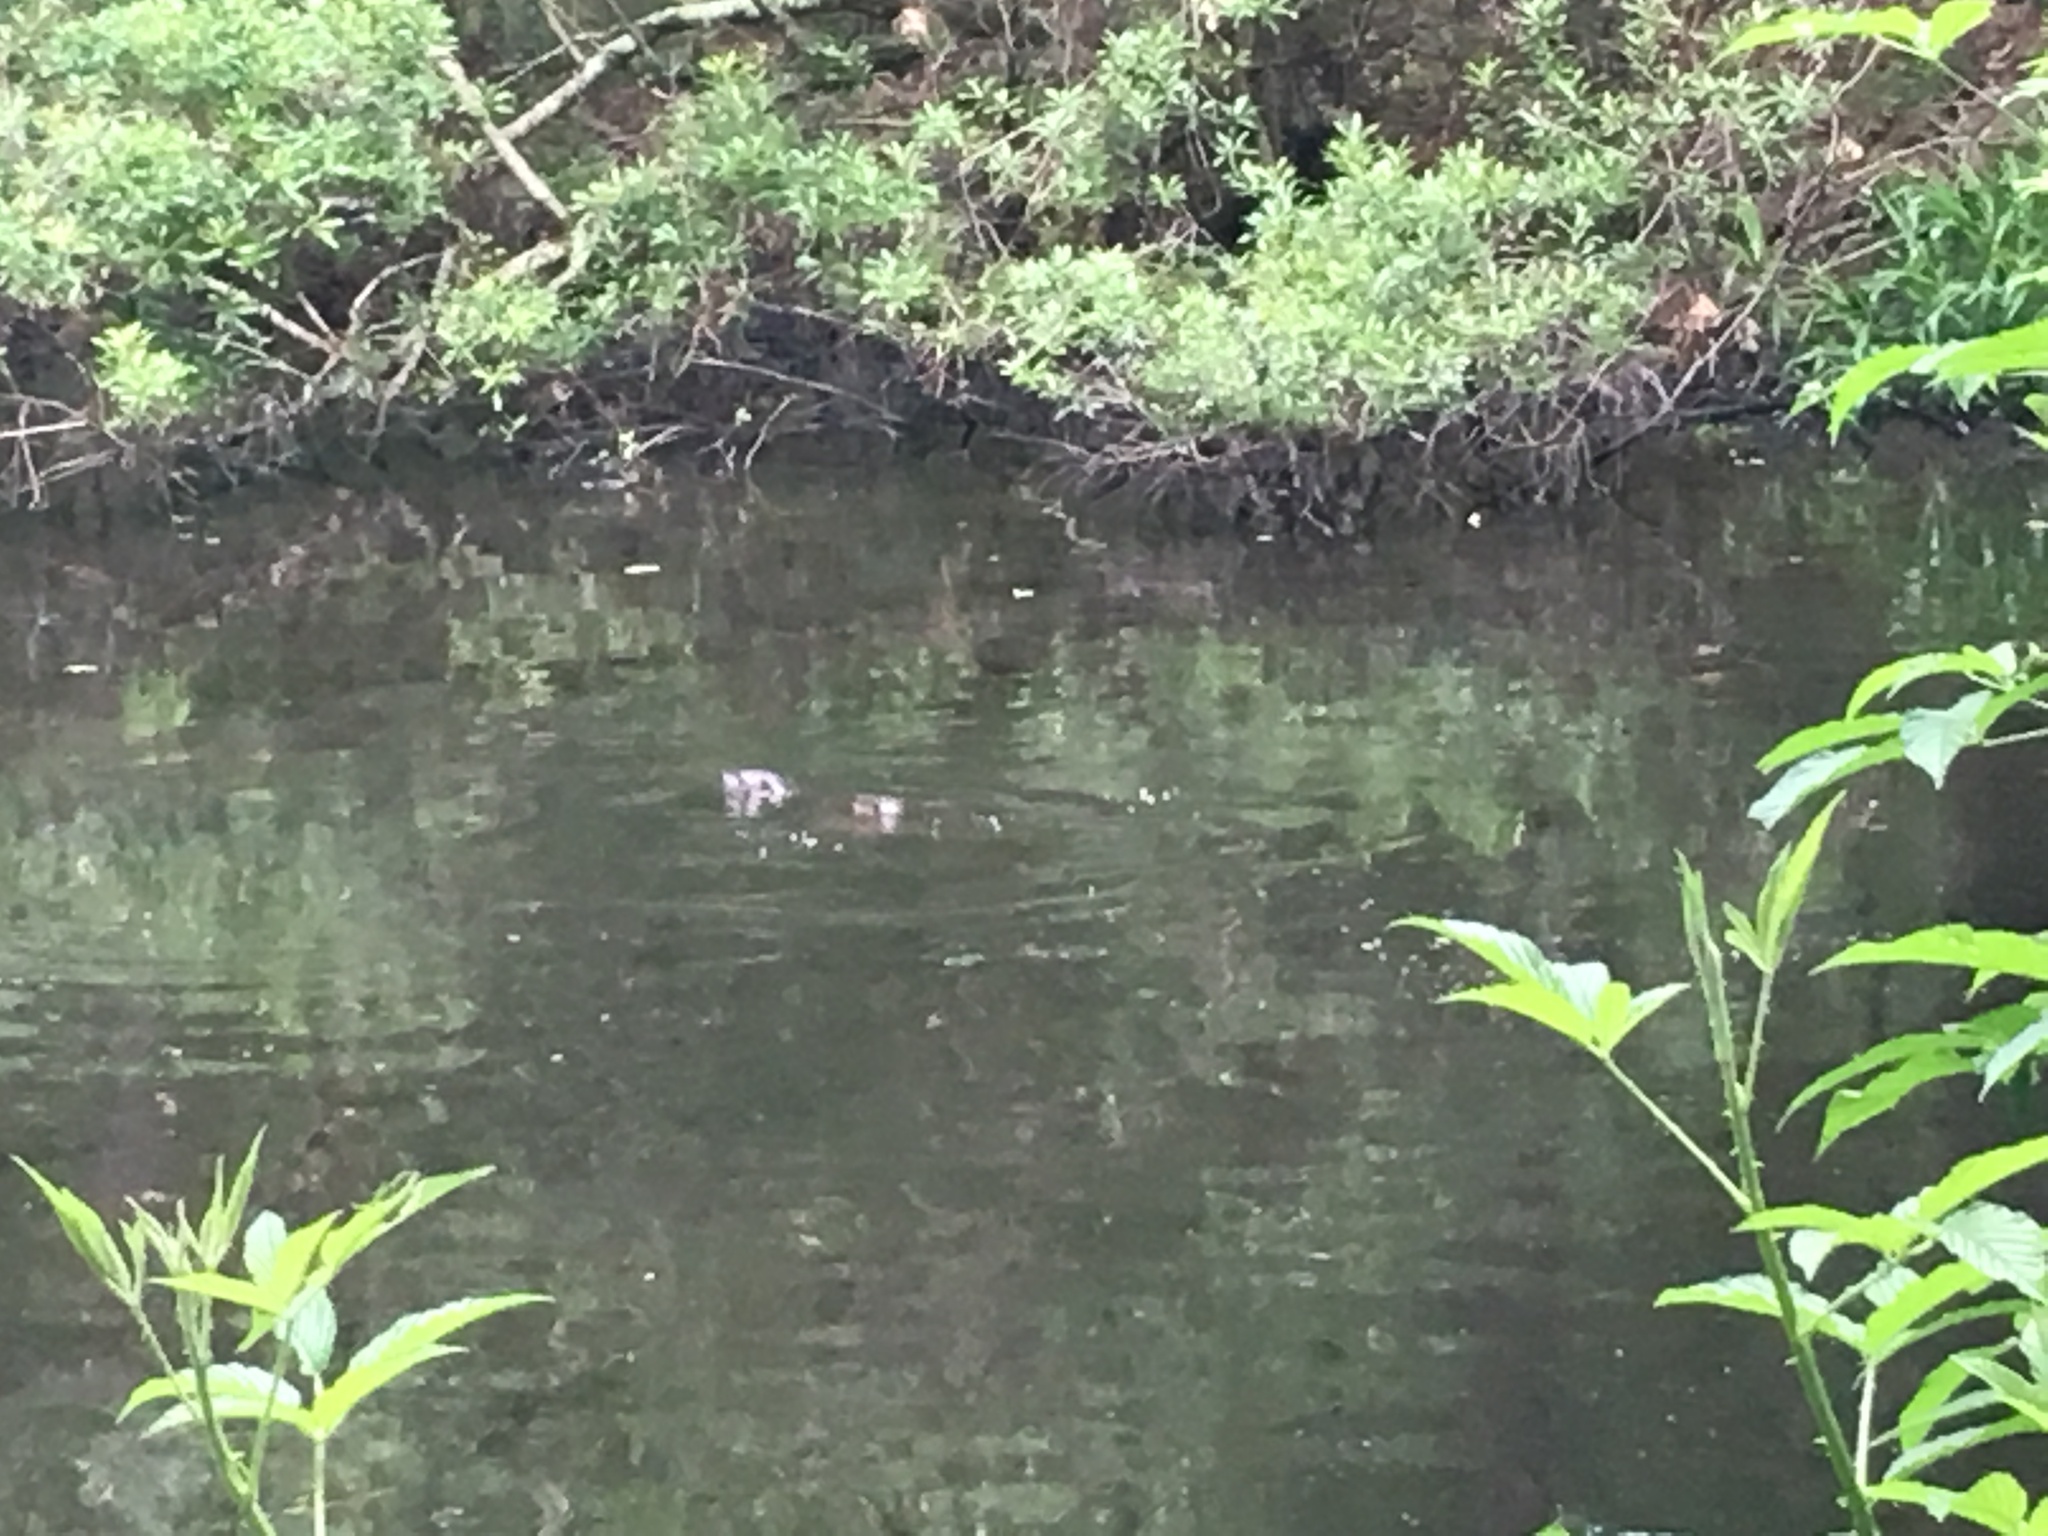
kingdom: Animalia
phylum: Chordata
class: Mammalia
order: Carnivora
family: Mustelidae
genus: Lontra
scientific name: Lontra canadensis
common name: North american river otter
